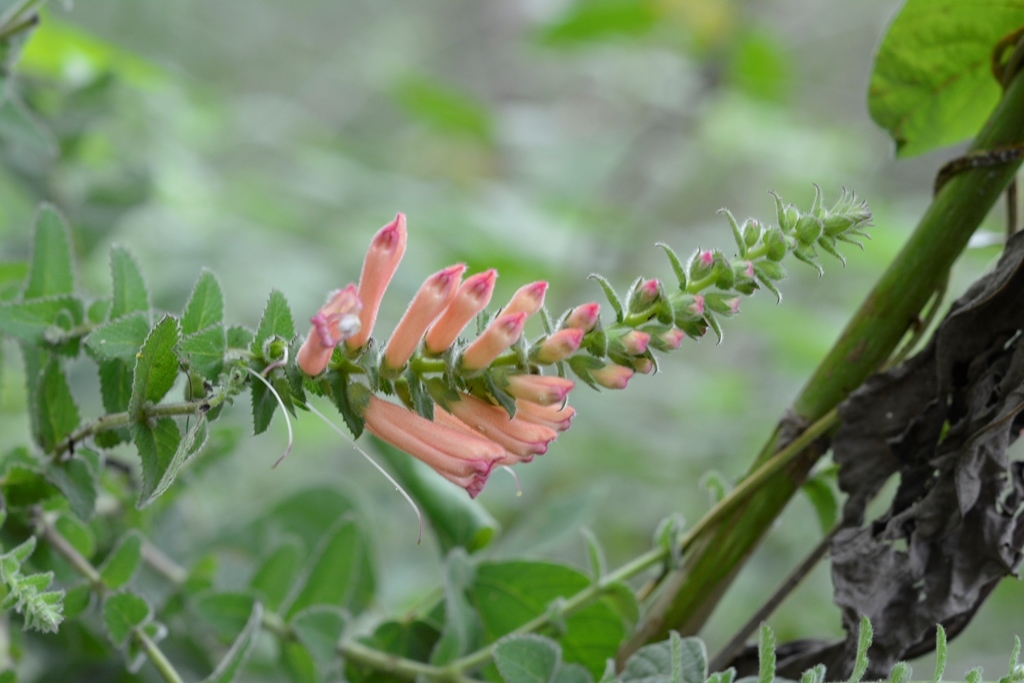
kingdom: Plantae
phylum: Tracheophyta
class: Magnoliopsida
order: Lamiales
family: Orobanchaceae
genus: Lamourouxia
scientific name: Lamourouxia viscosa
